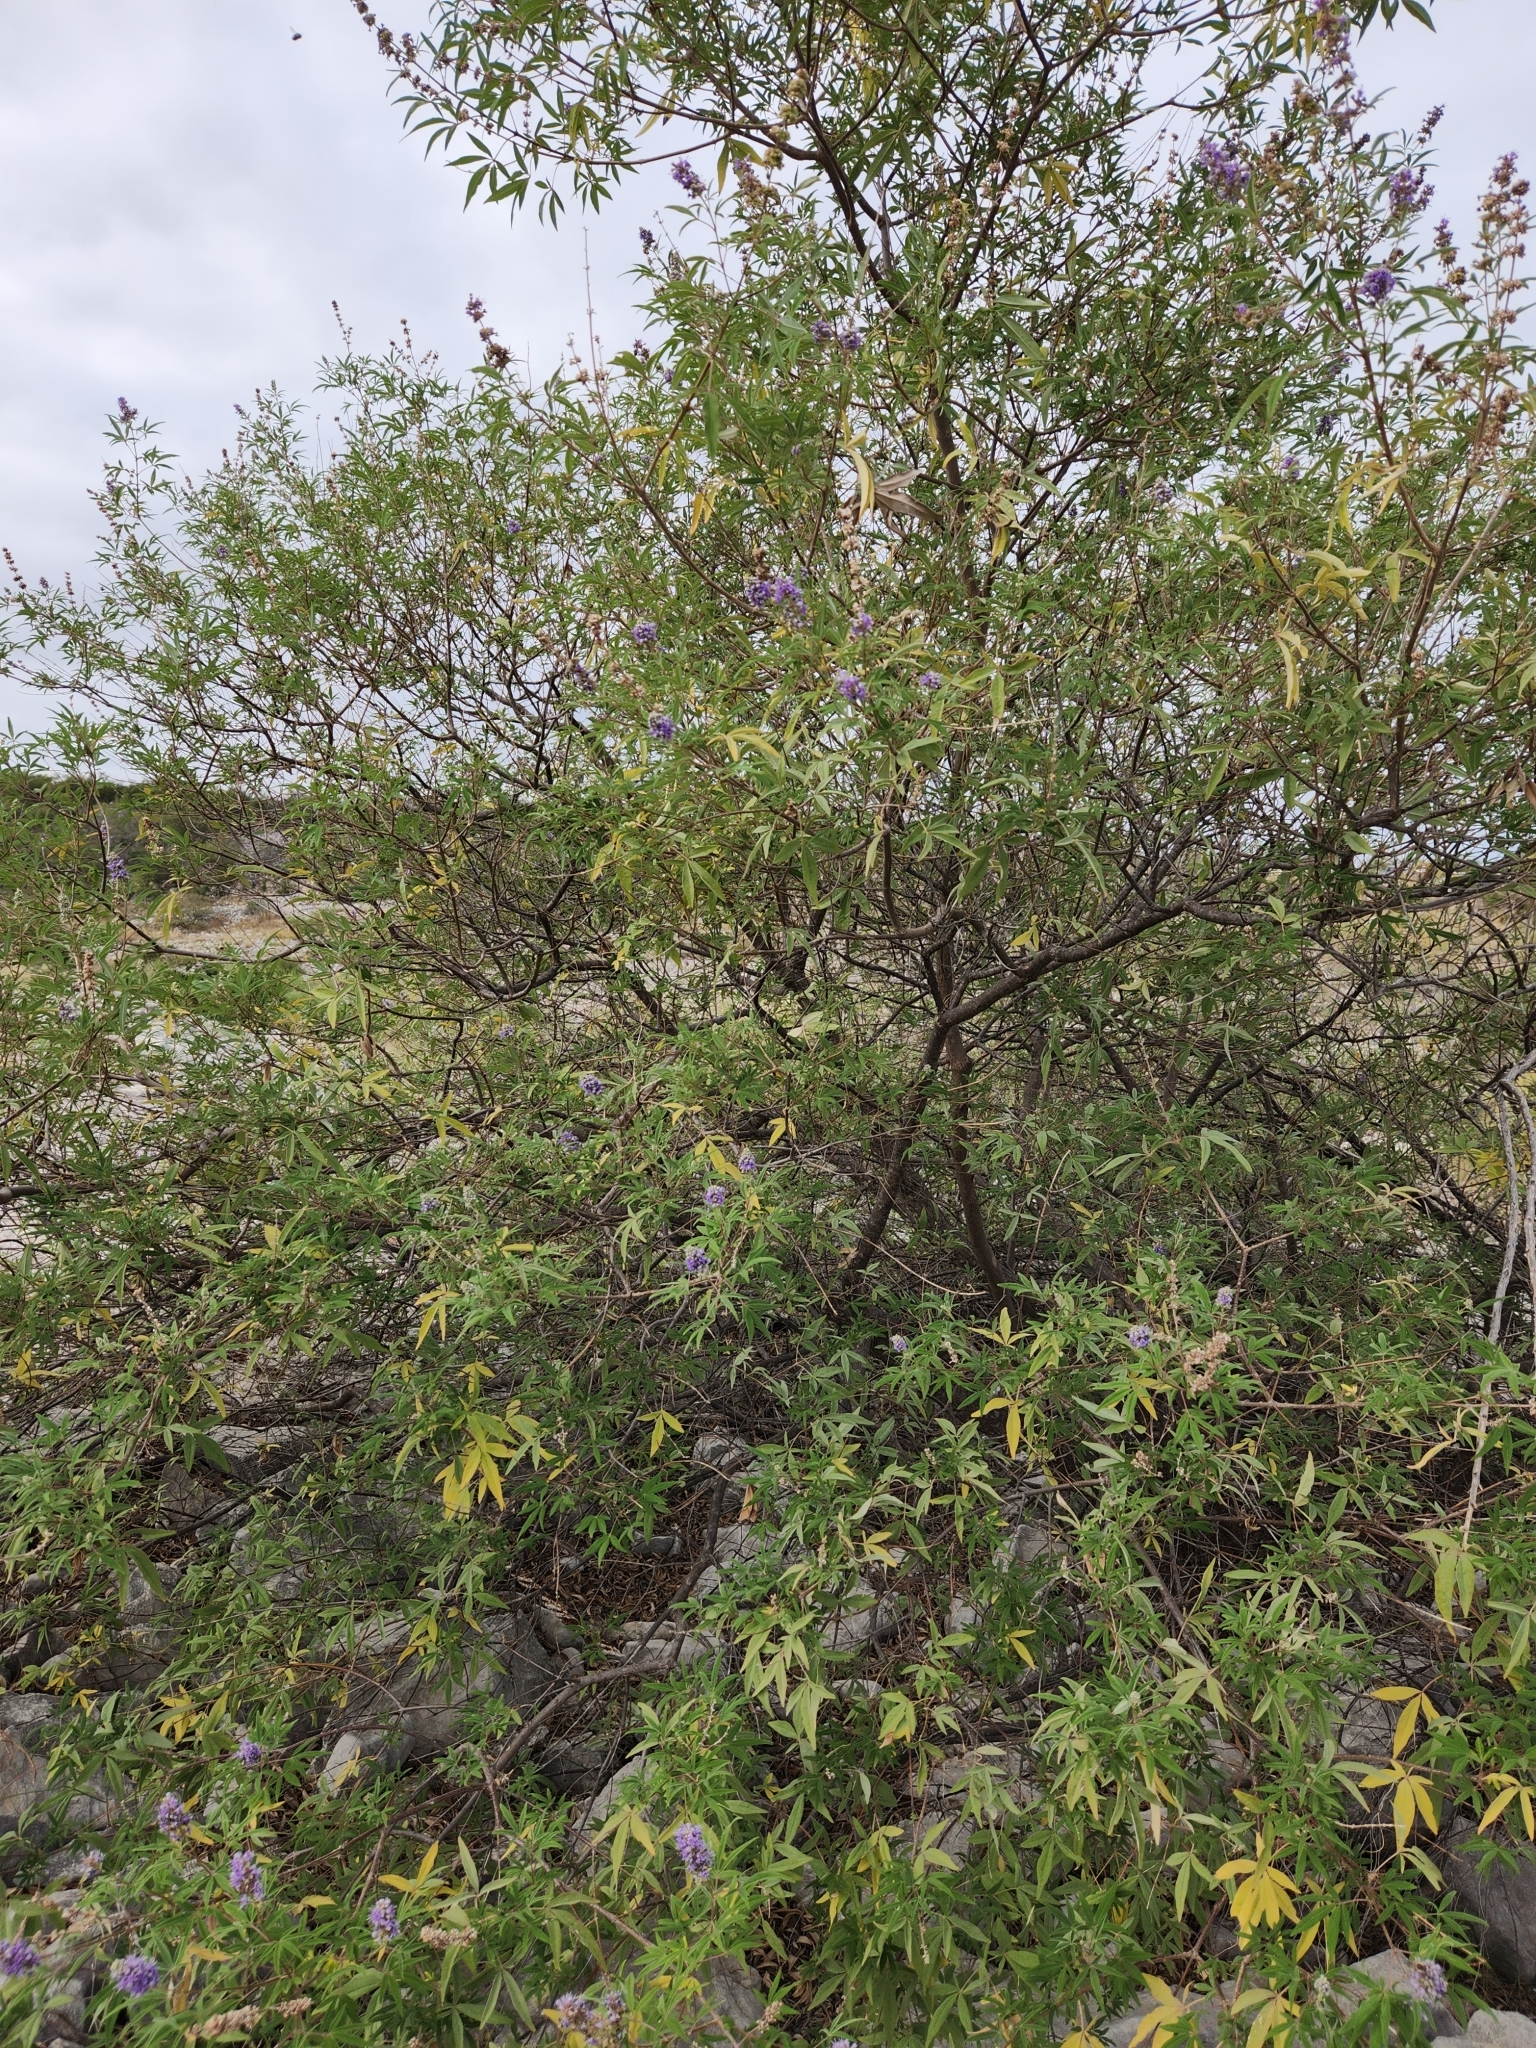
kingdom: Plantae
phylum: Tracheophyta
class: Magnoliopsida
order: Lamiales
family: Lamiaceae
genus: Vitex
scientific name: Vitex agnus-castus
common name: Chasteberry
